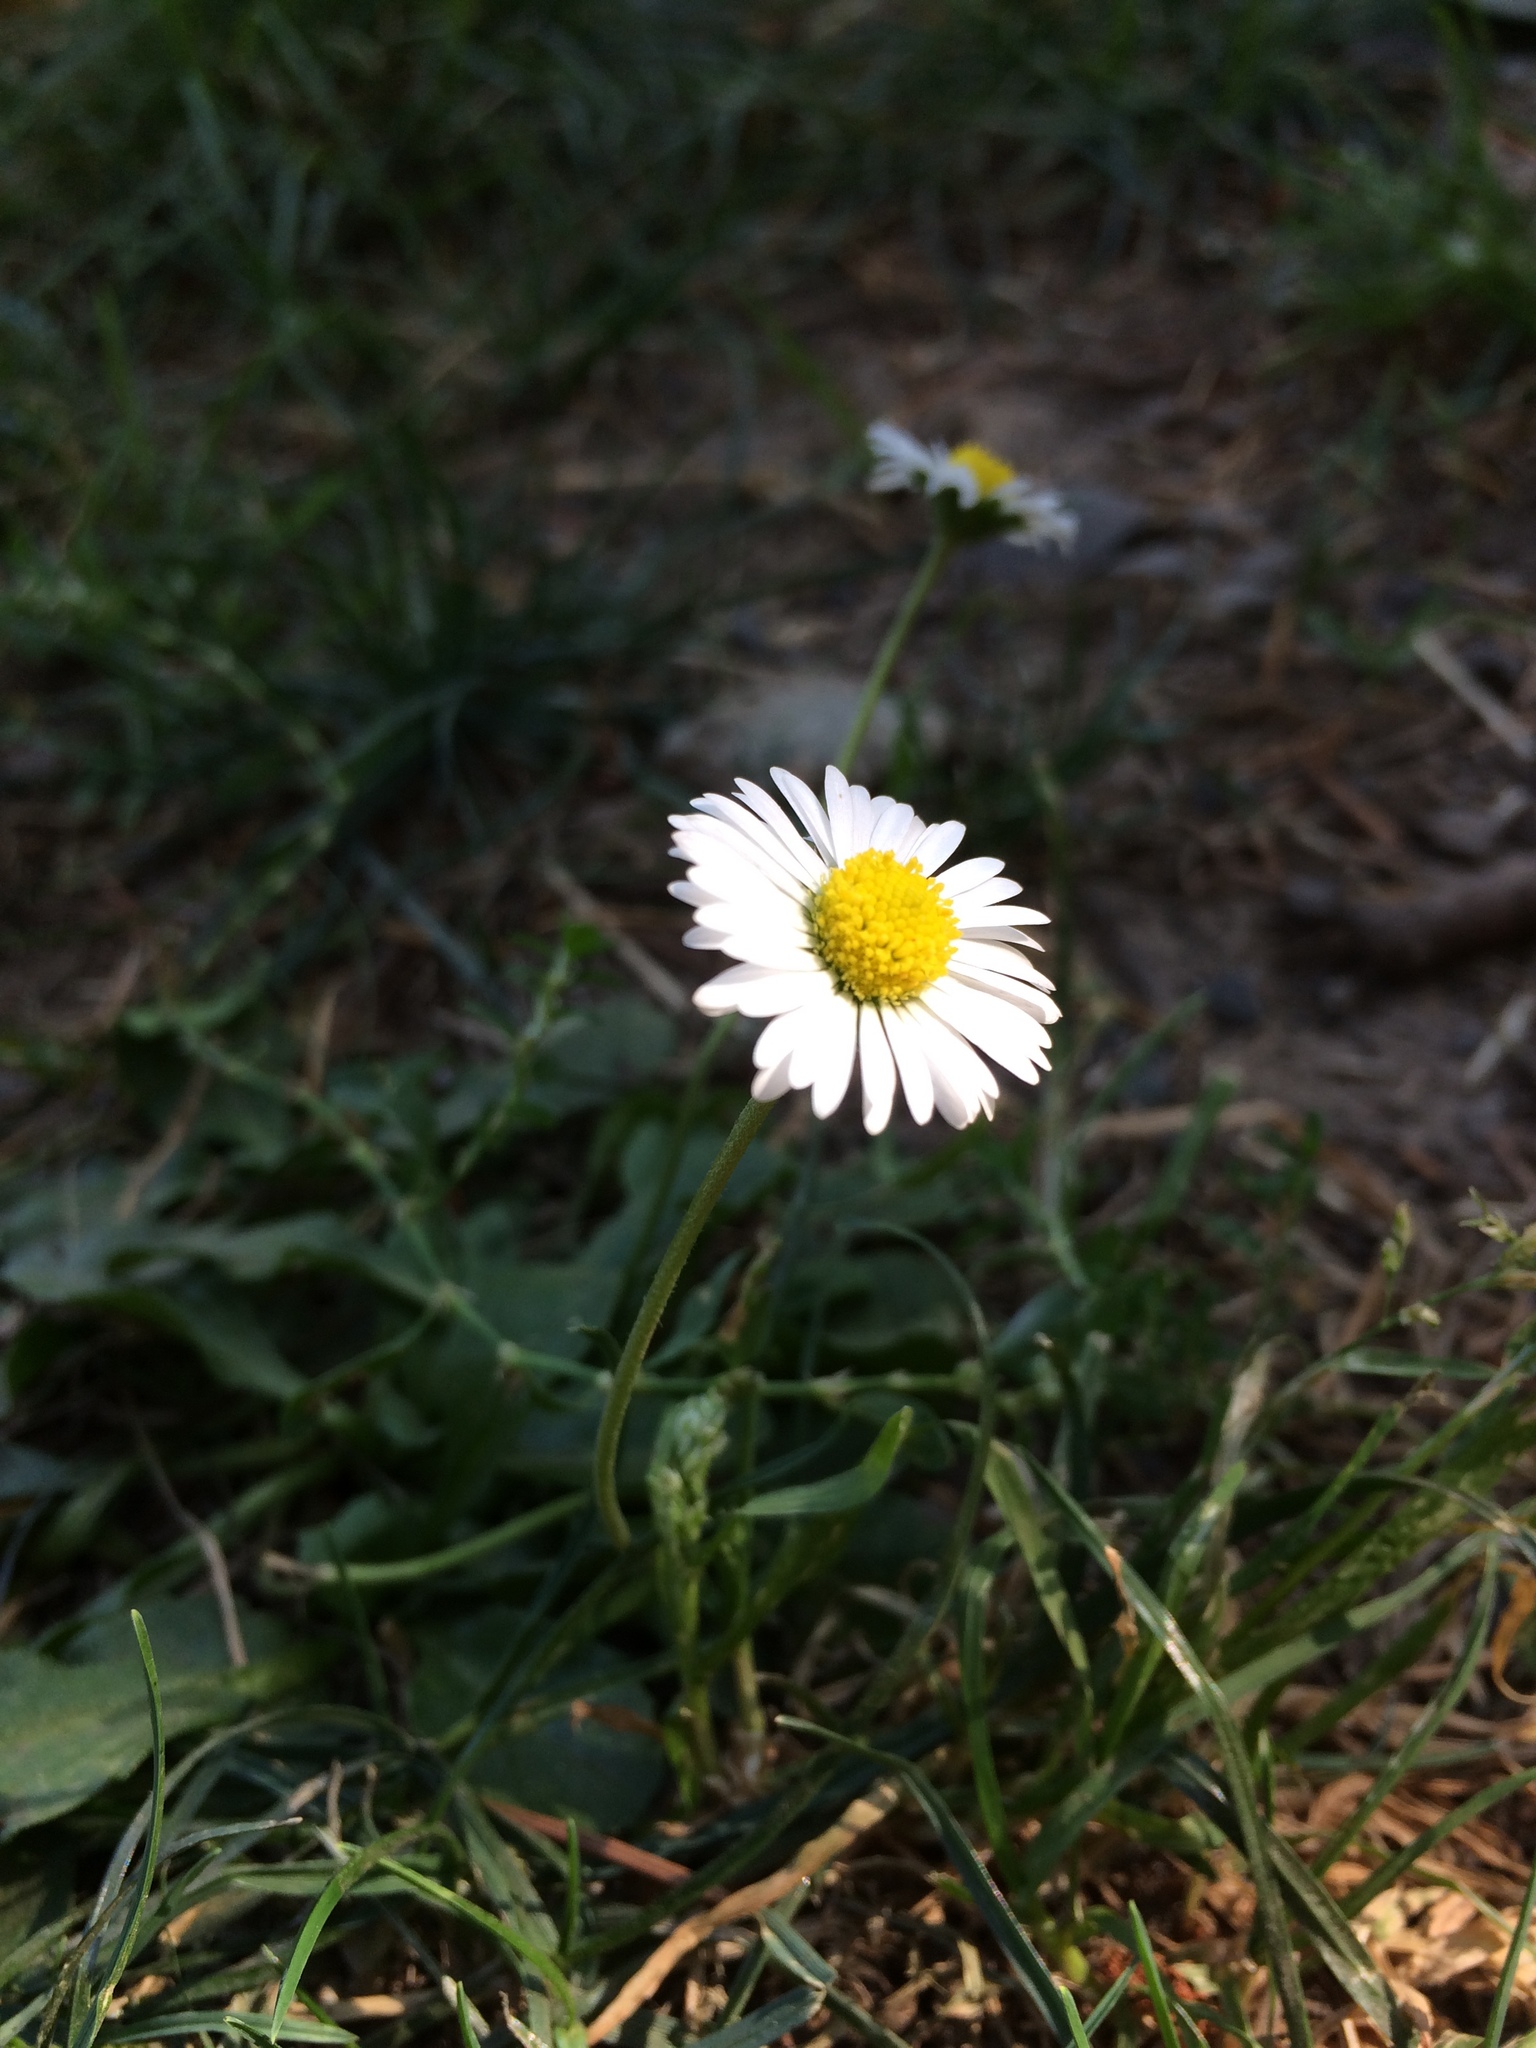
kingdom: Plantae
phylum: Tracheophyta
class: Magnoliopsida
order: Asterales
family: Asteraceae
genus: Bellis
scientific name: Bellis perennis
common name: Lawndaisy
